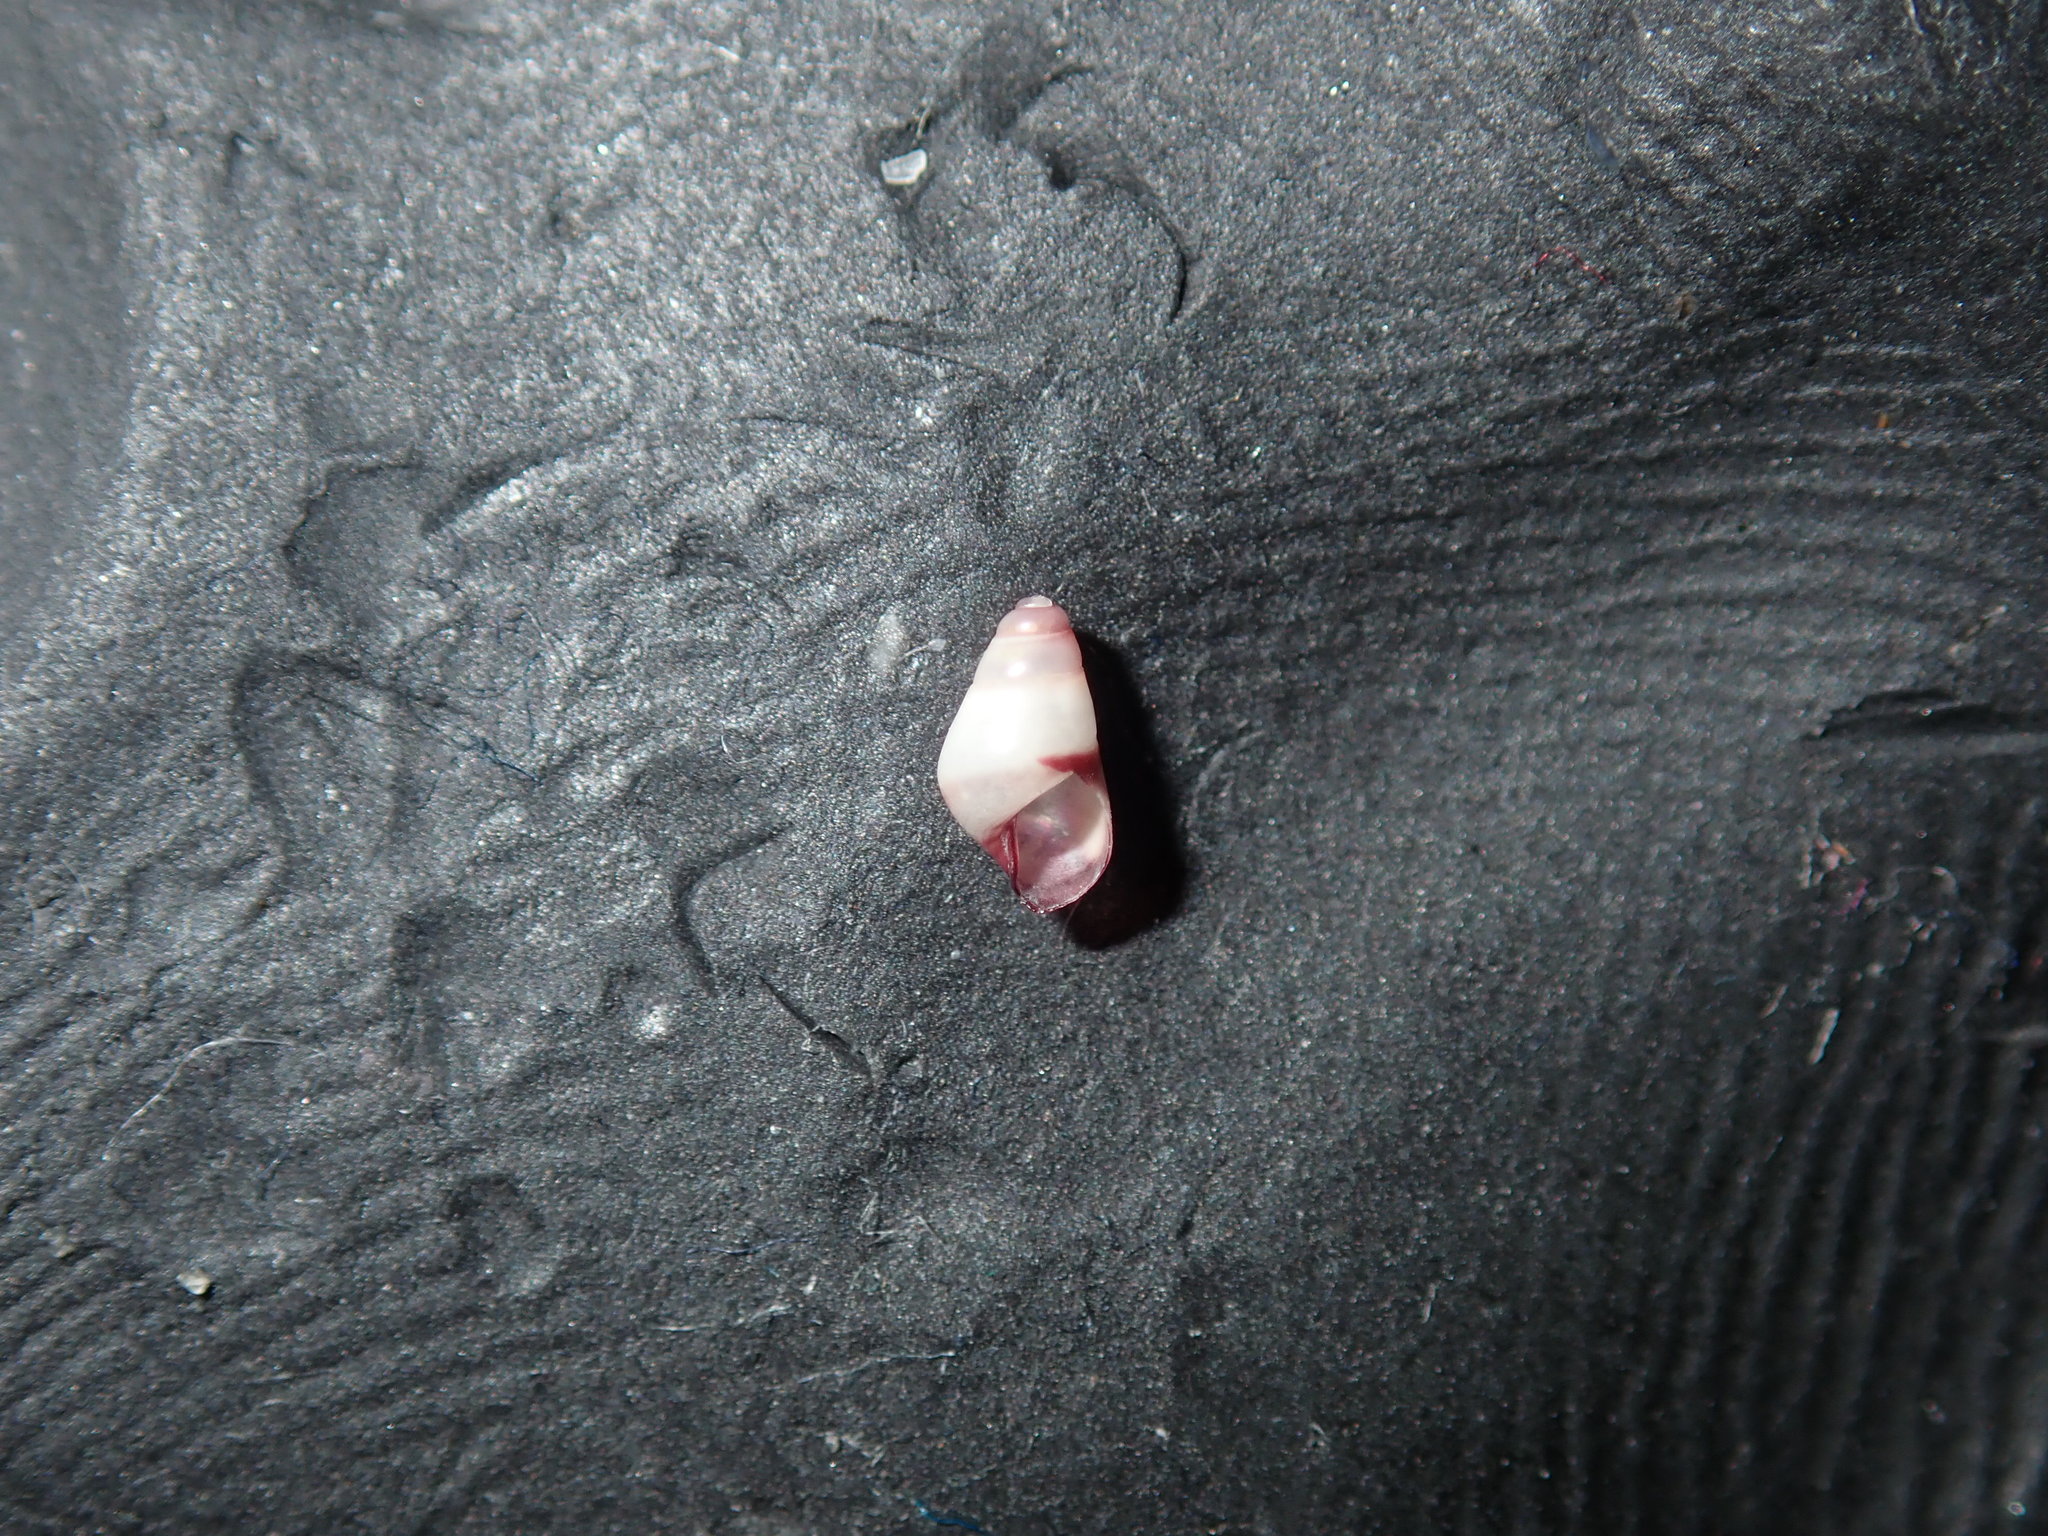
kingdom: Animalia
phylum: Mollusca
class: Gastropoda
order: Trochida
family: Trochidae
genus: Bankivia
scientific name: Bankivia fasciata
